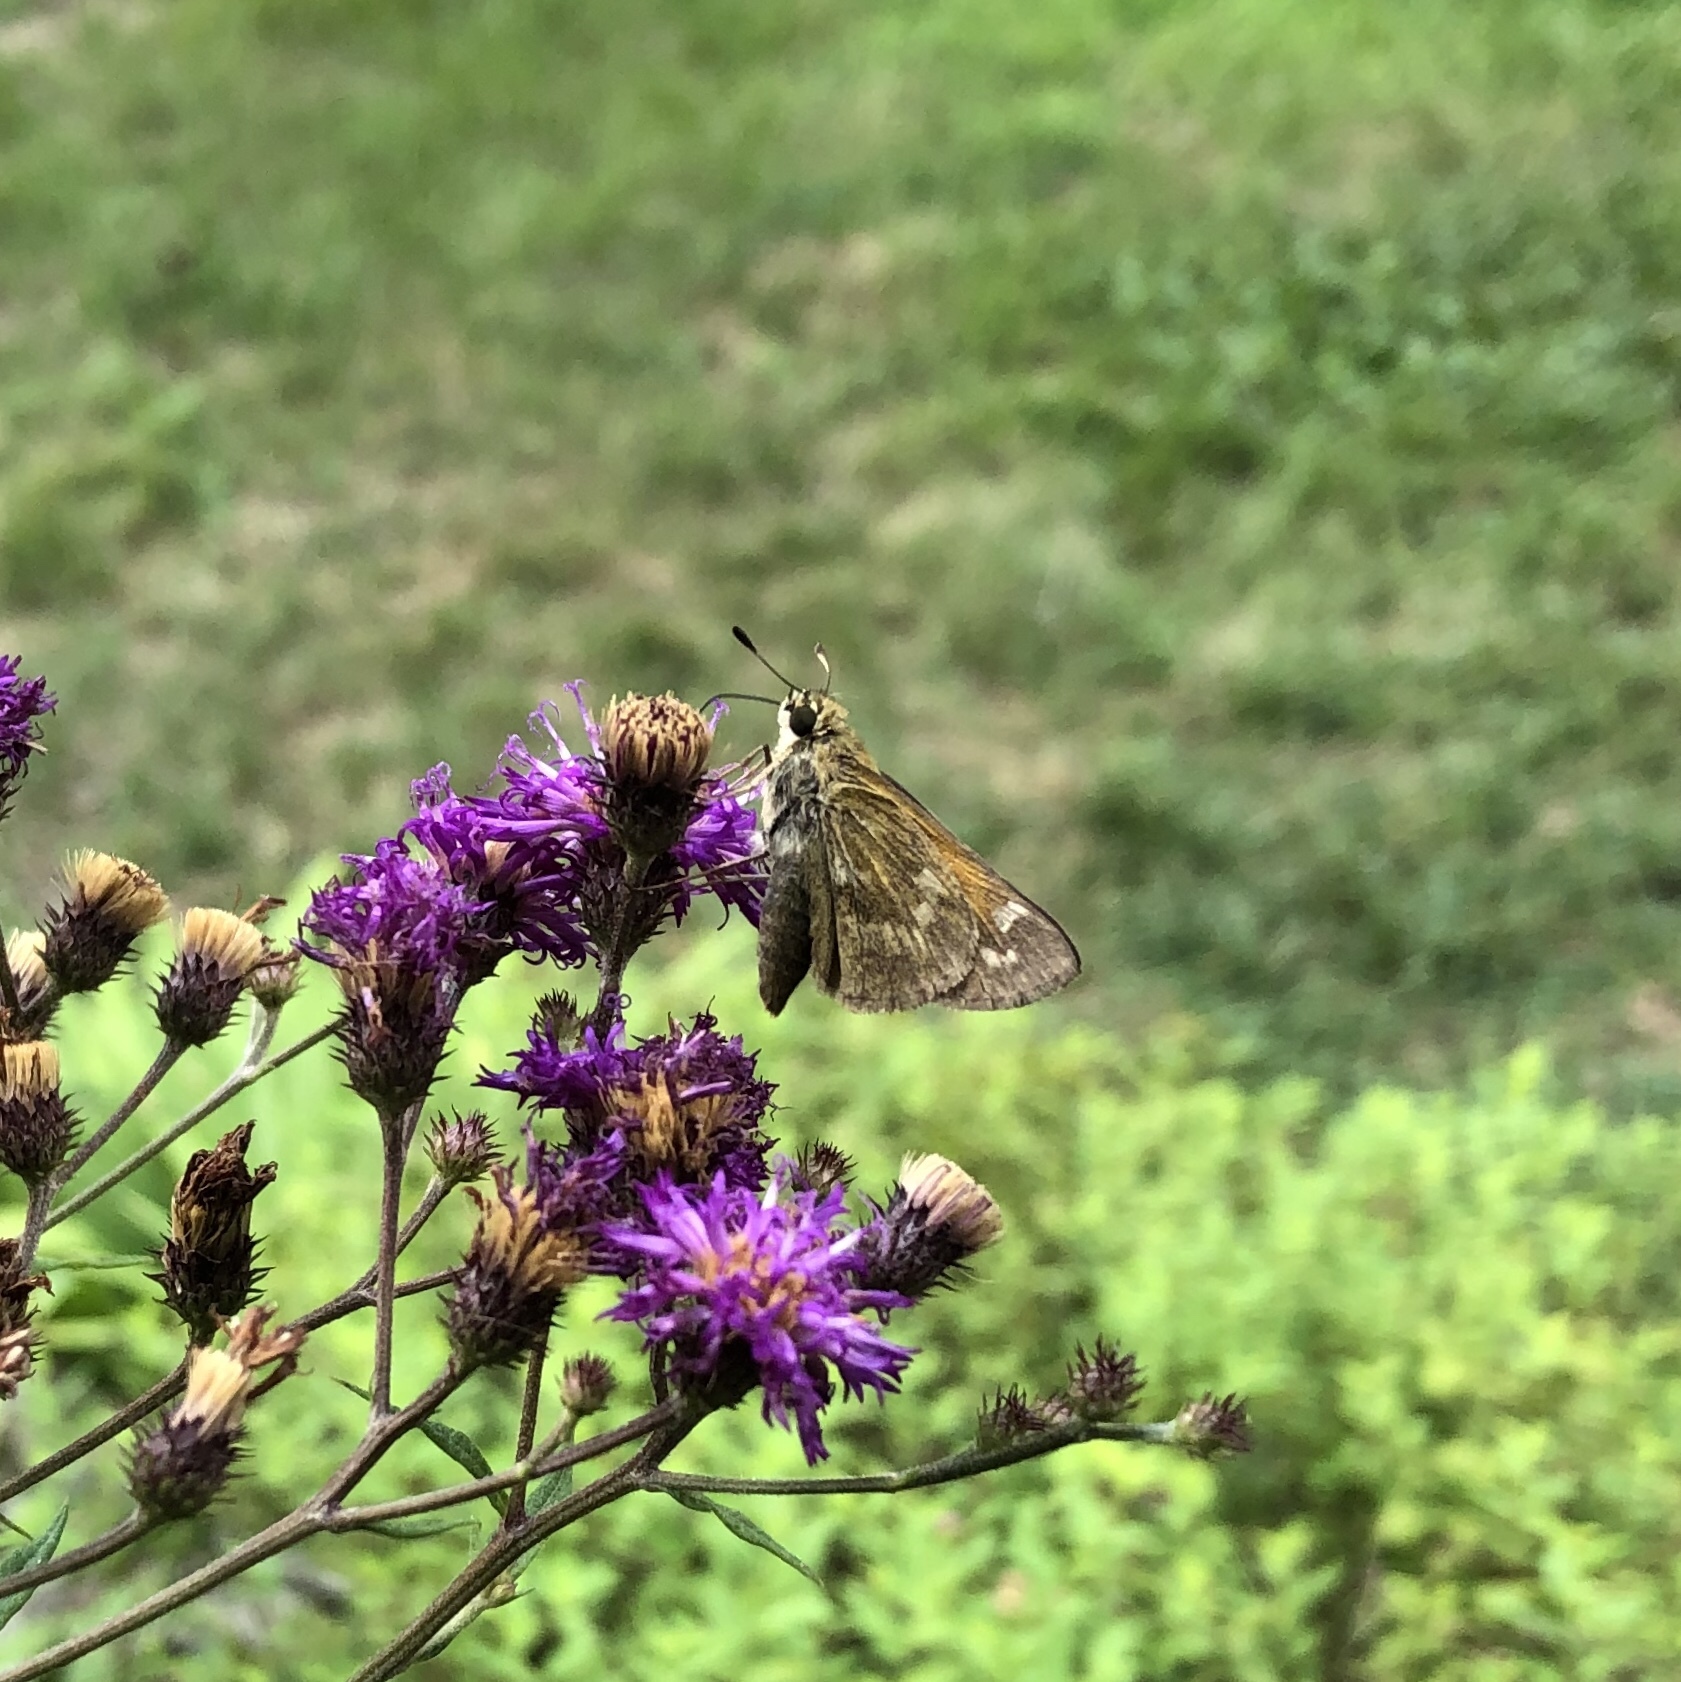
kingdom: Animalia
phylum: Arthropoda
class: Insecta
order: Lepidoptera
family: Hesperiidae
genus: Atalopedes
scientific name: Atalopedes
